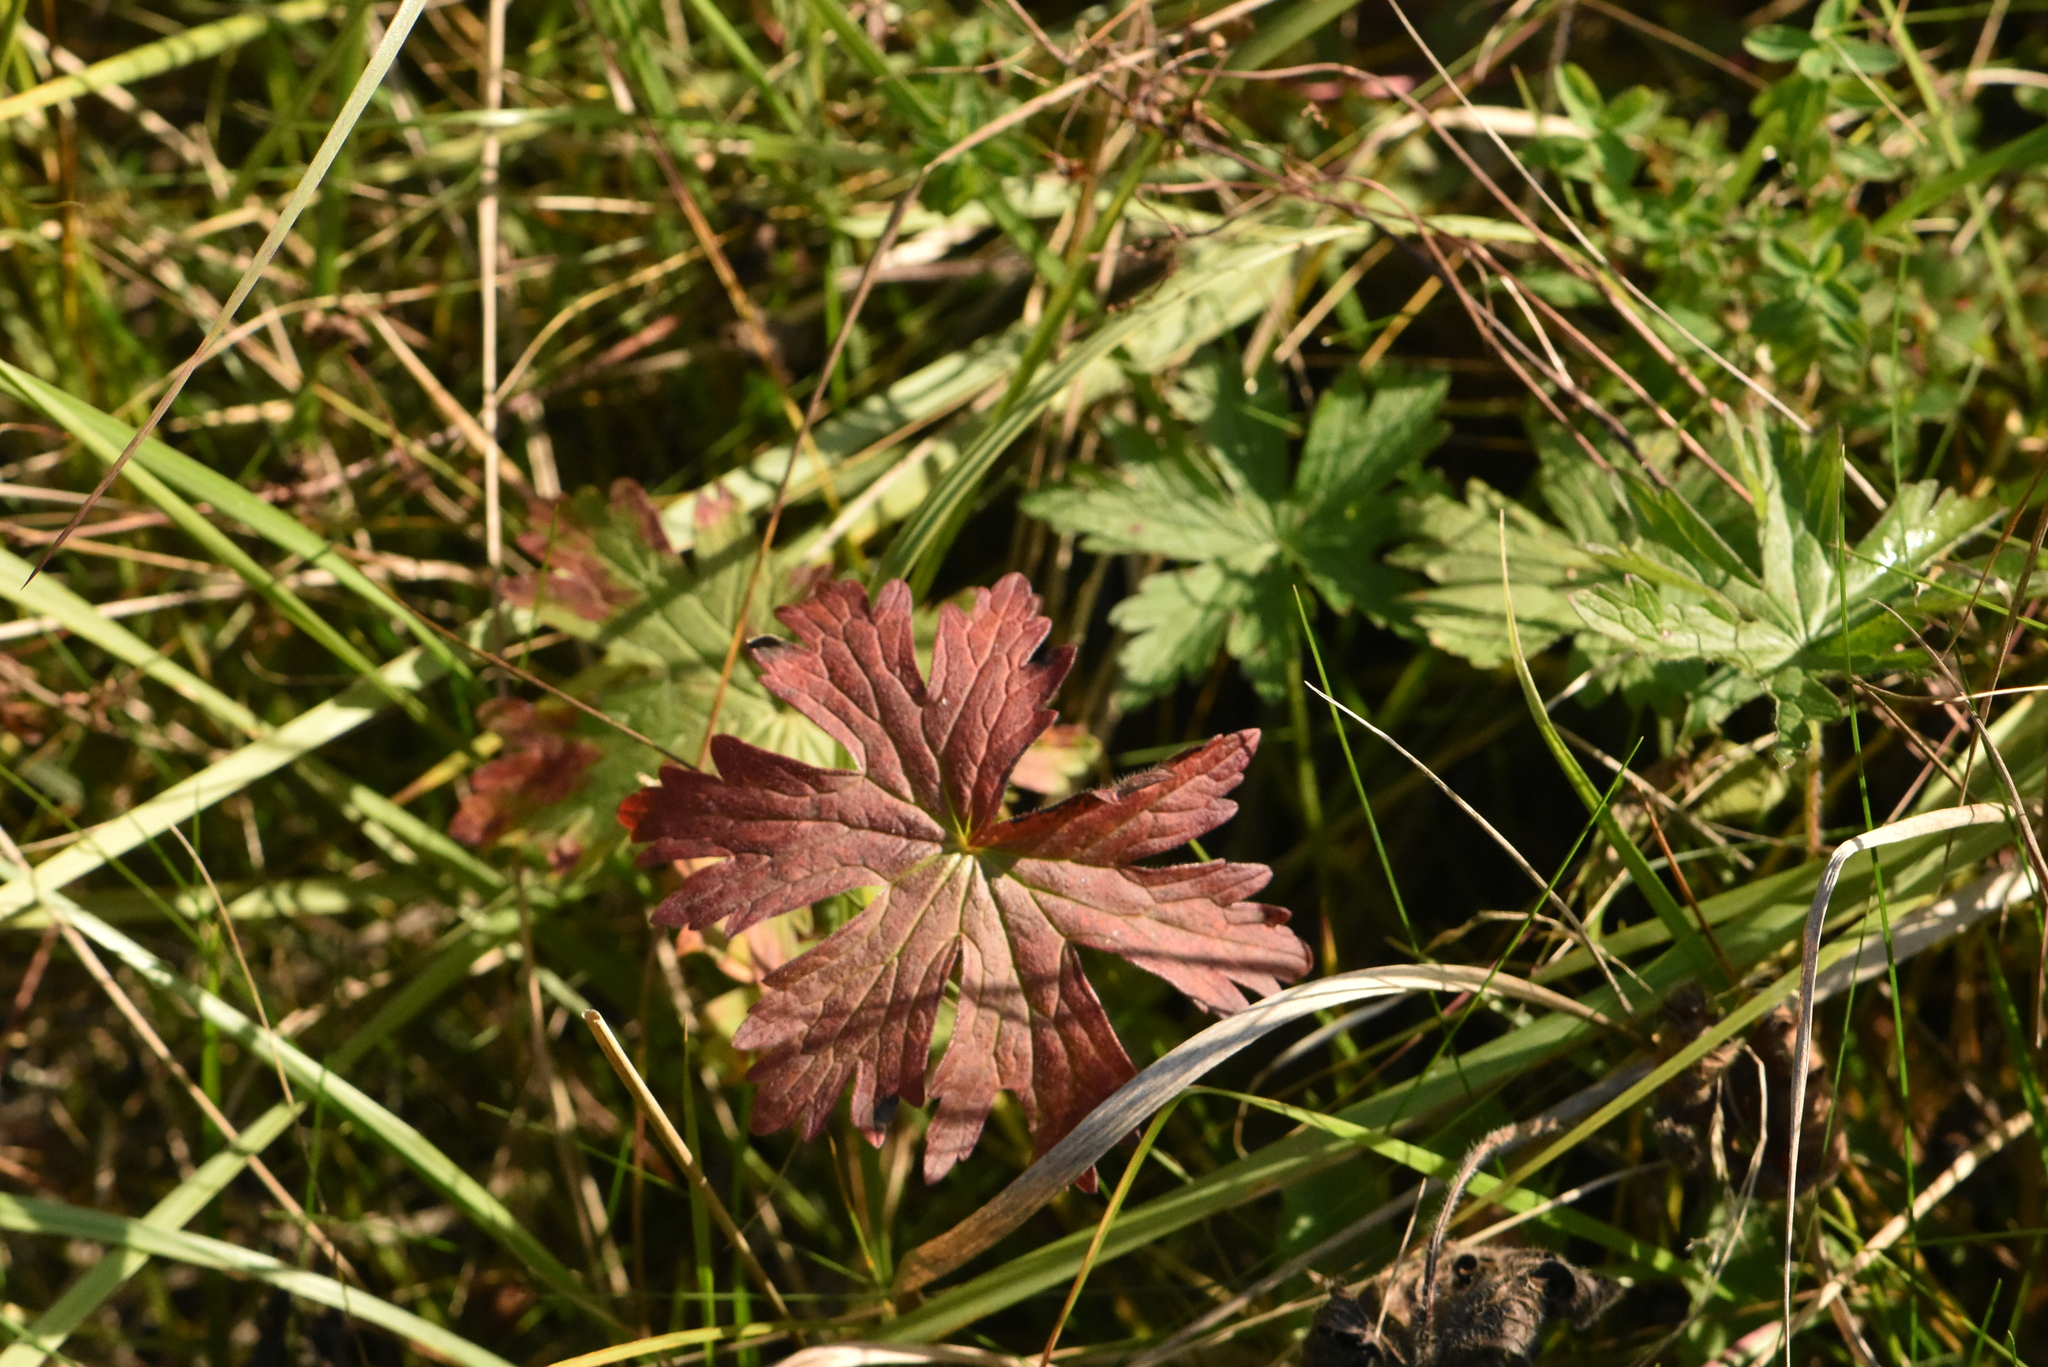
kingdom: Plantae
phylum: Tracheophyta
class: Magnoliopsida
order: Geraniales
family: Geraniaceae
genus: Geranium
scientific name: Geranium palustre
